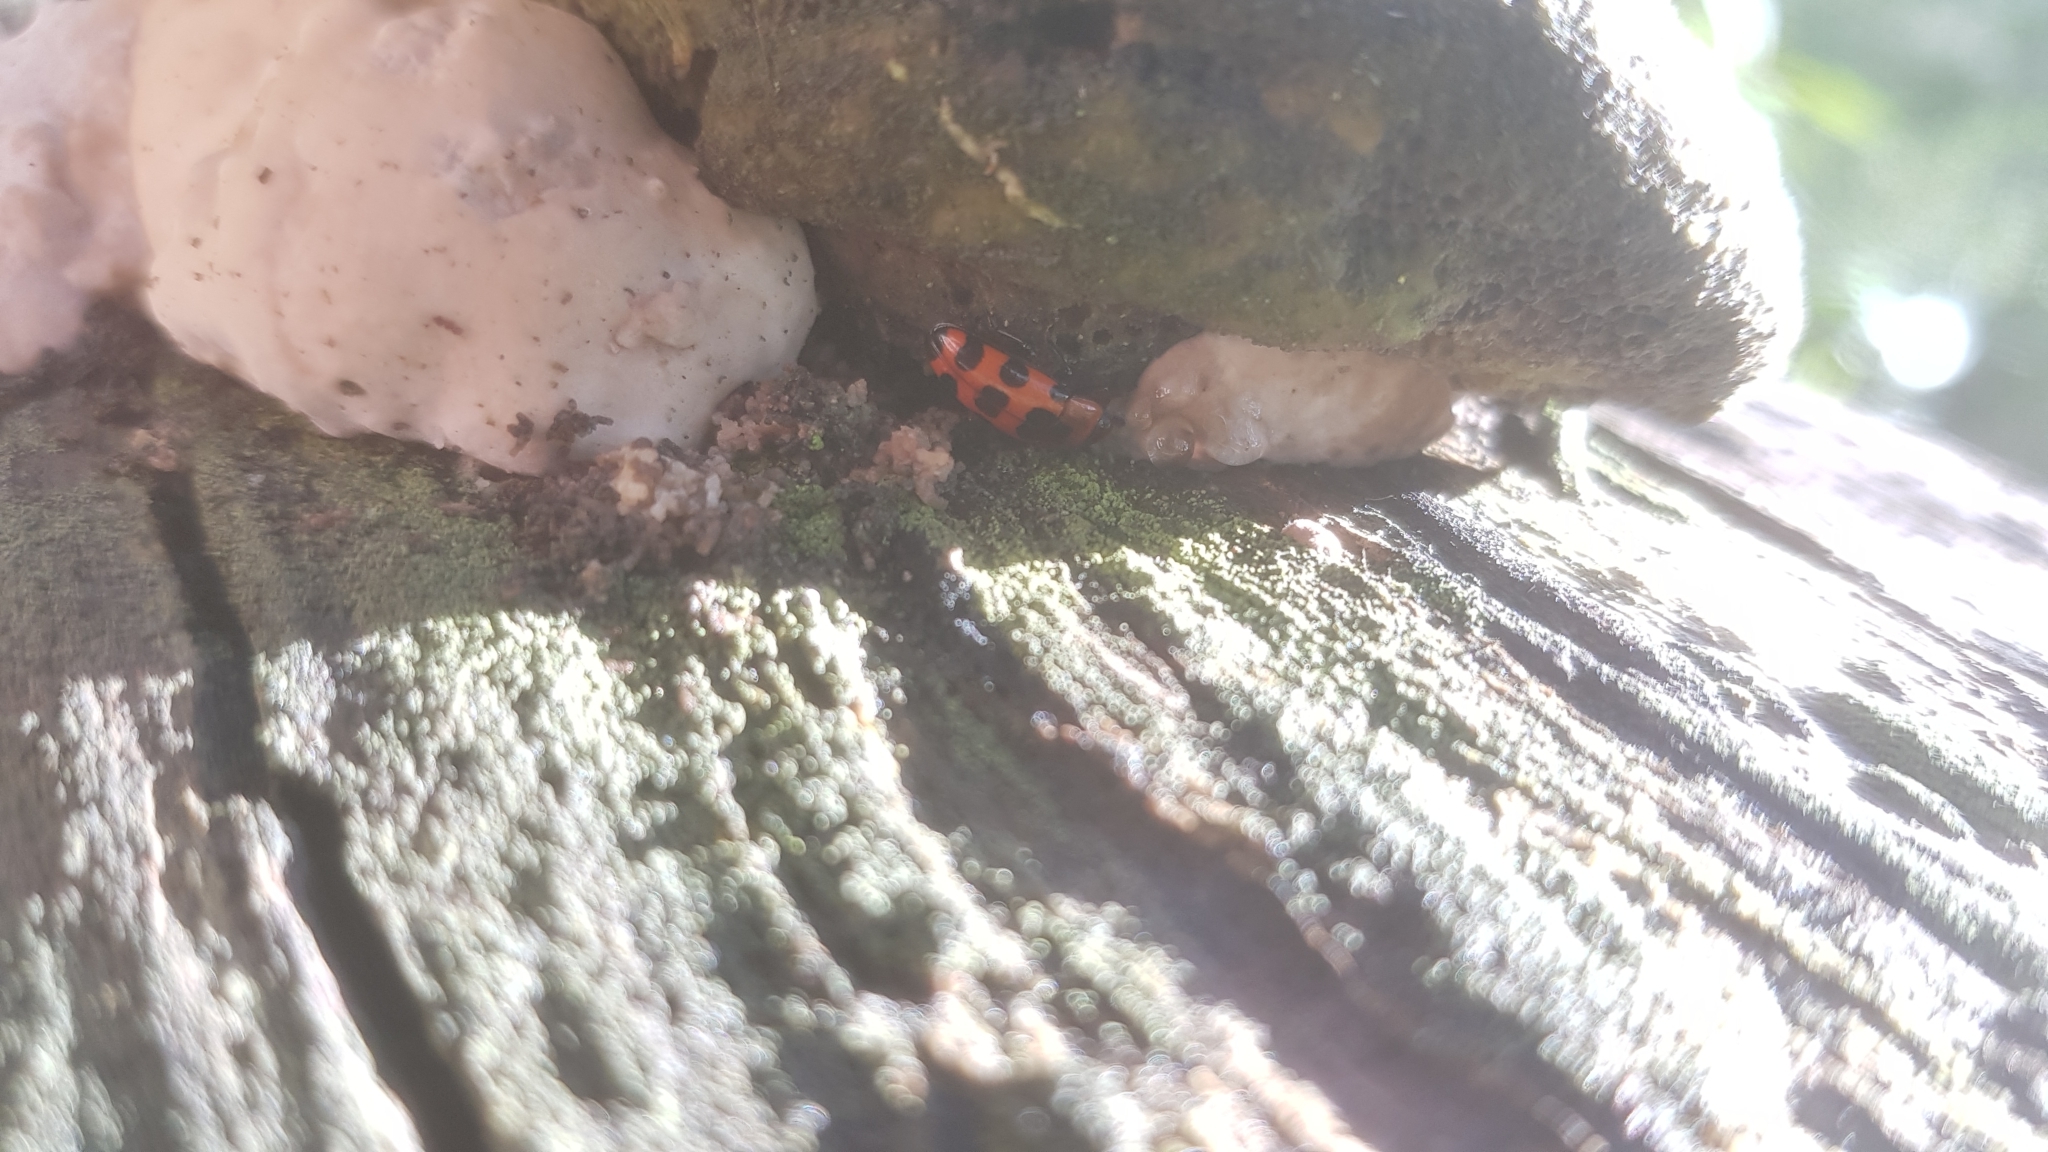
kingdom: Animalia
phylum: Arthropoda
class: Insecta
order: Coleoptera
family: Erotylidae
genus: Episcaphula
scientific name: Episcaphula australis
